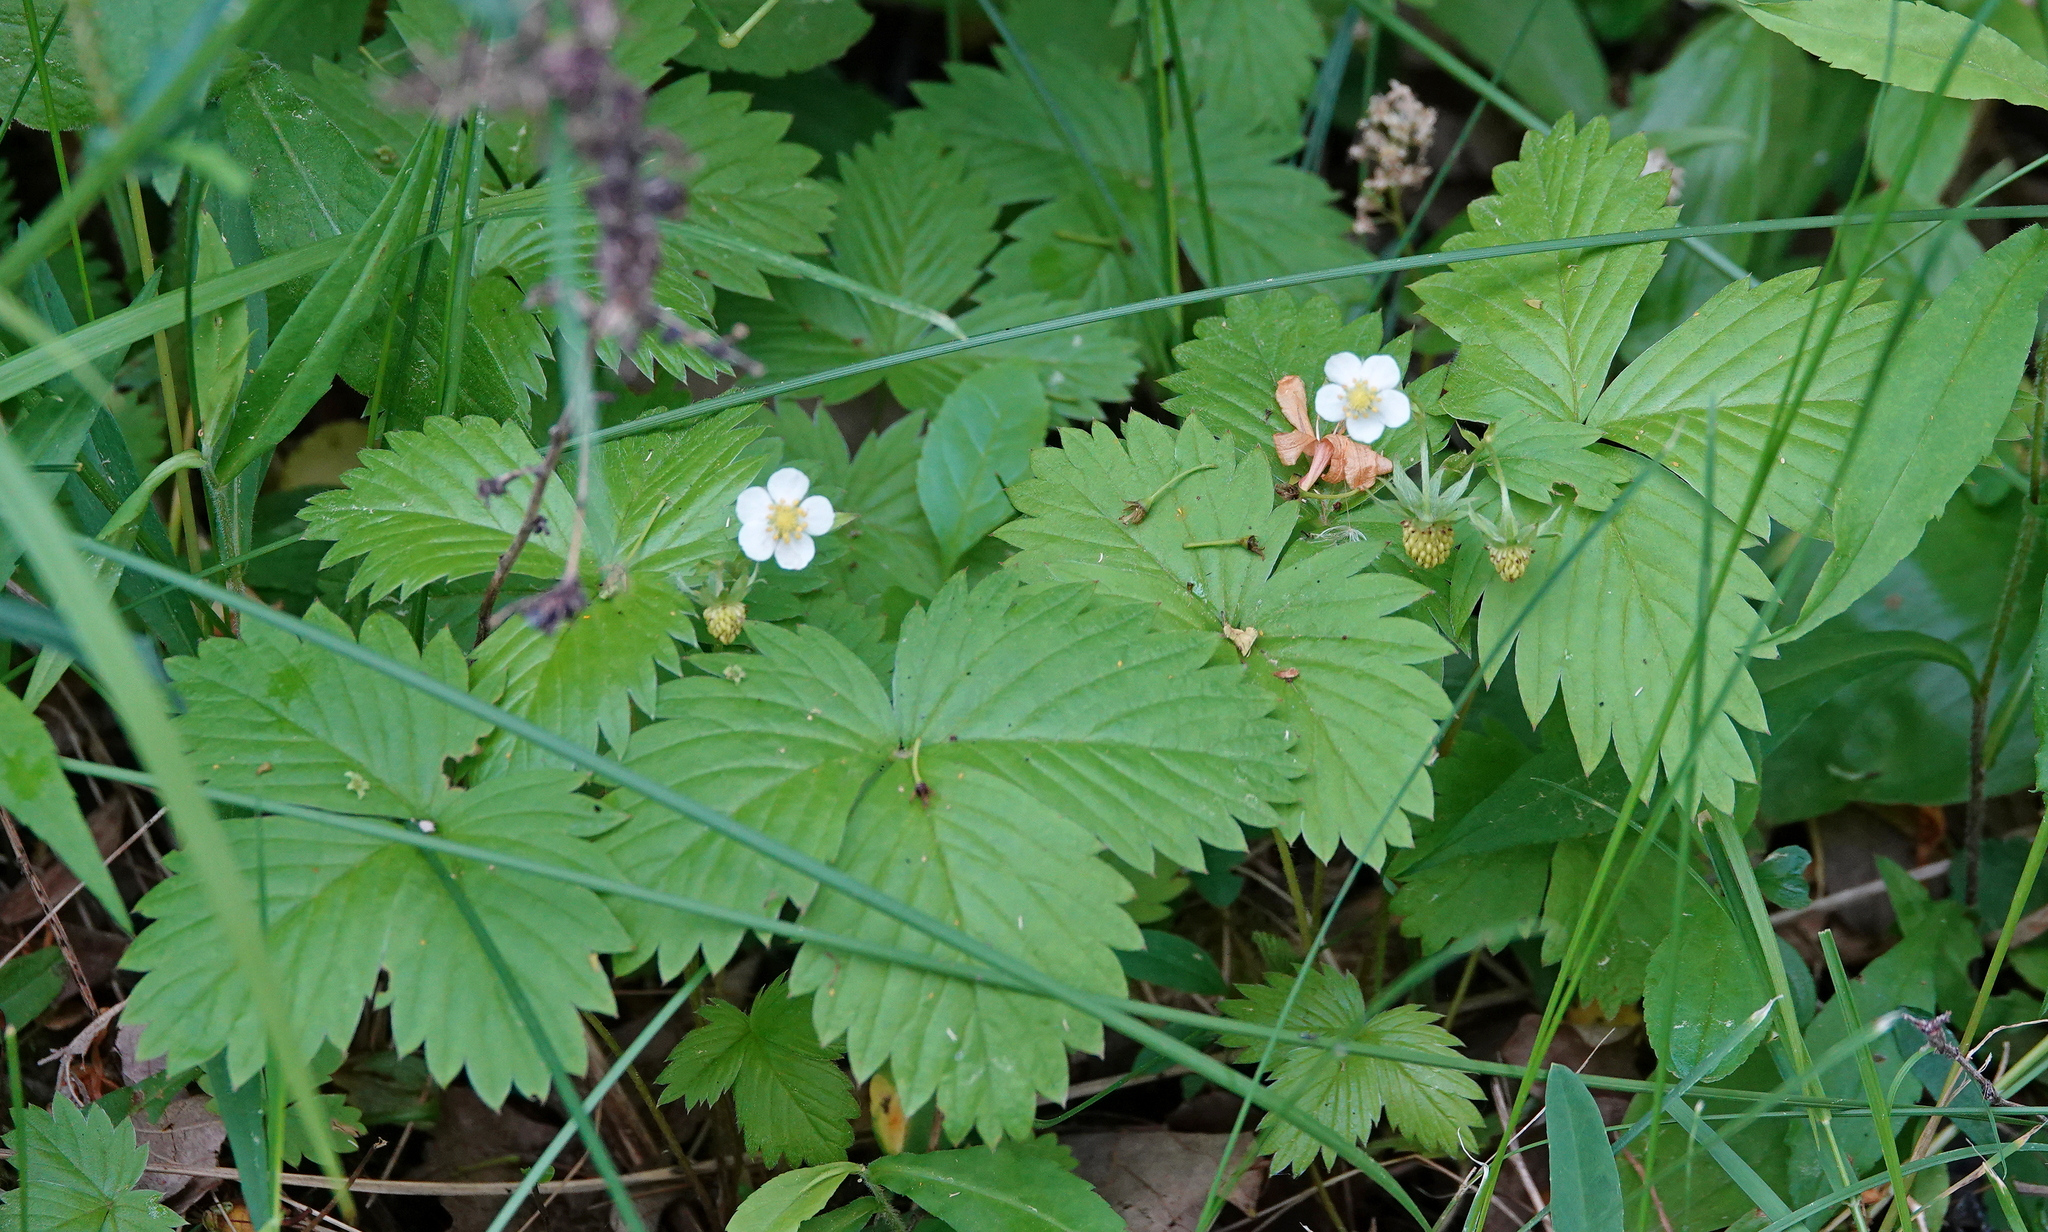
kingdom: Plantae
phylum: Tracheophyta
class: Magnoliopsida
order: Rosales
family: Rosaceae
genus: Fragaria
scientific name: Fragaria vesca
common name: Wild strawberry
